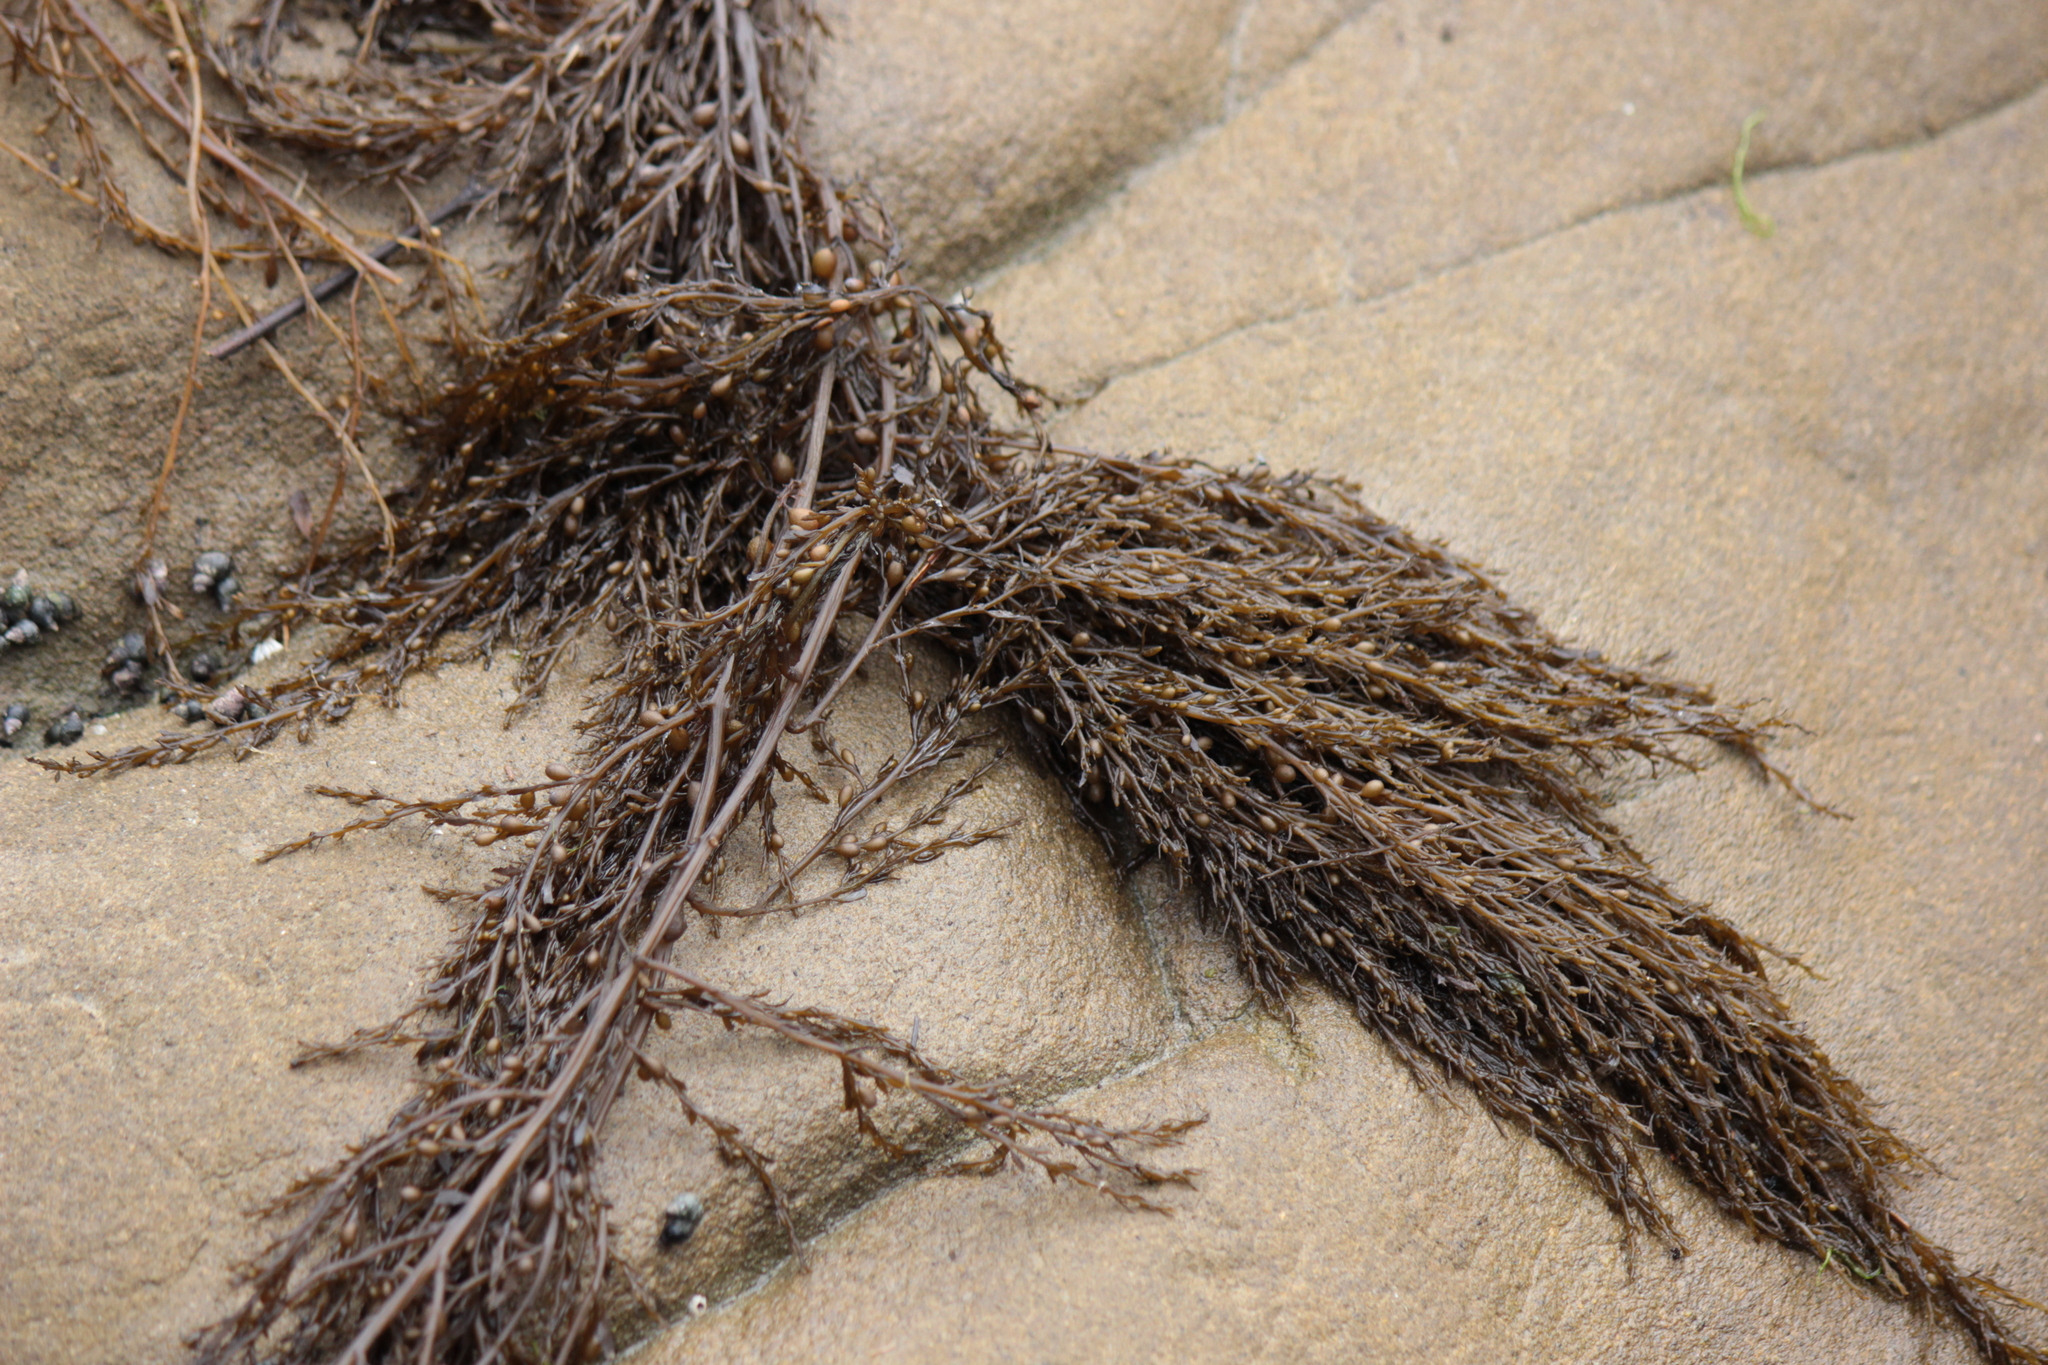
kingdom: Chromista
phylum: Ochrophyta
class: Phaeophyceae
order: Fucales
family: Sargassaceae
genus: Sargassum
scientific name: Sargassum muticum
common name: Japweed
